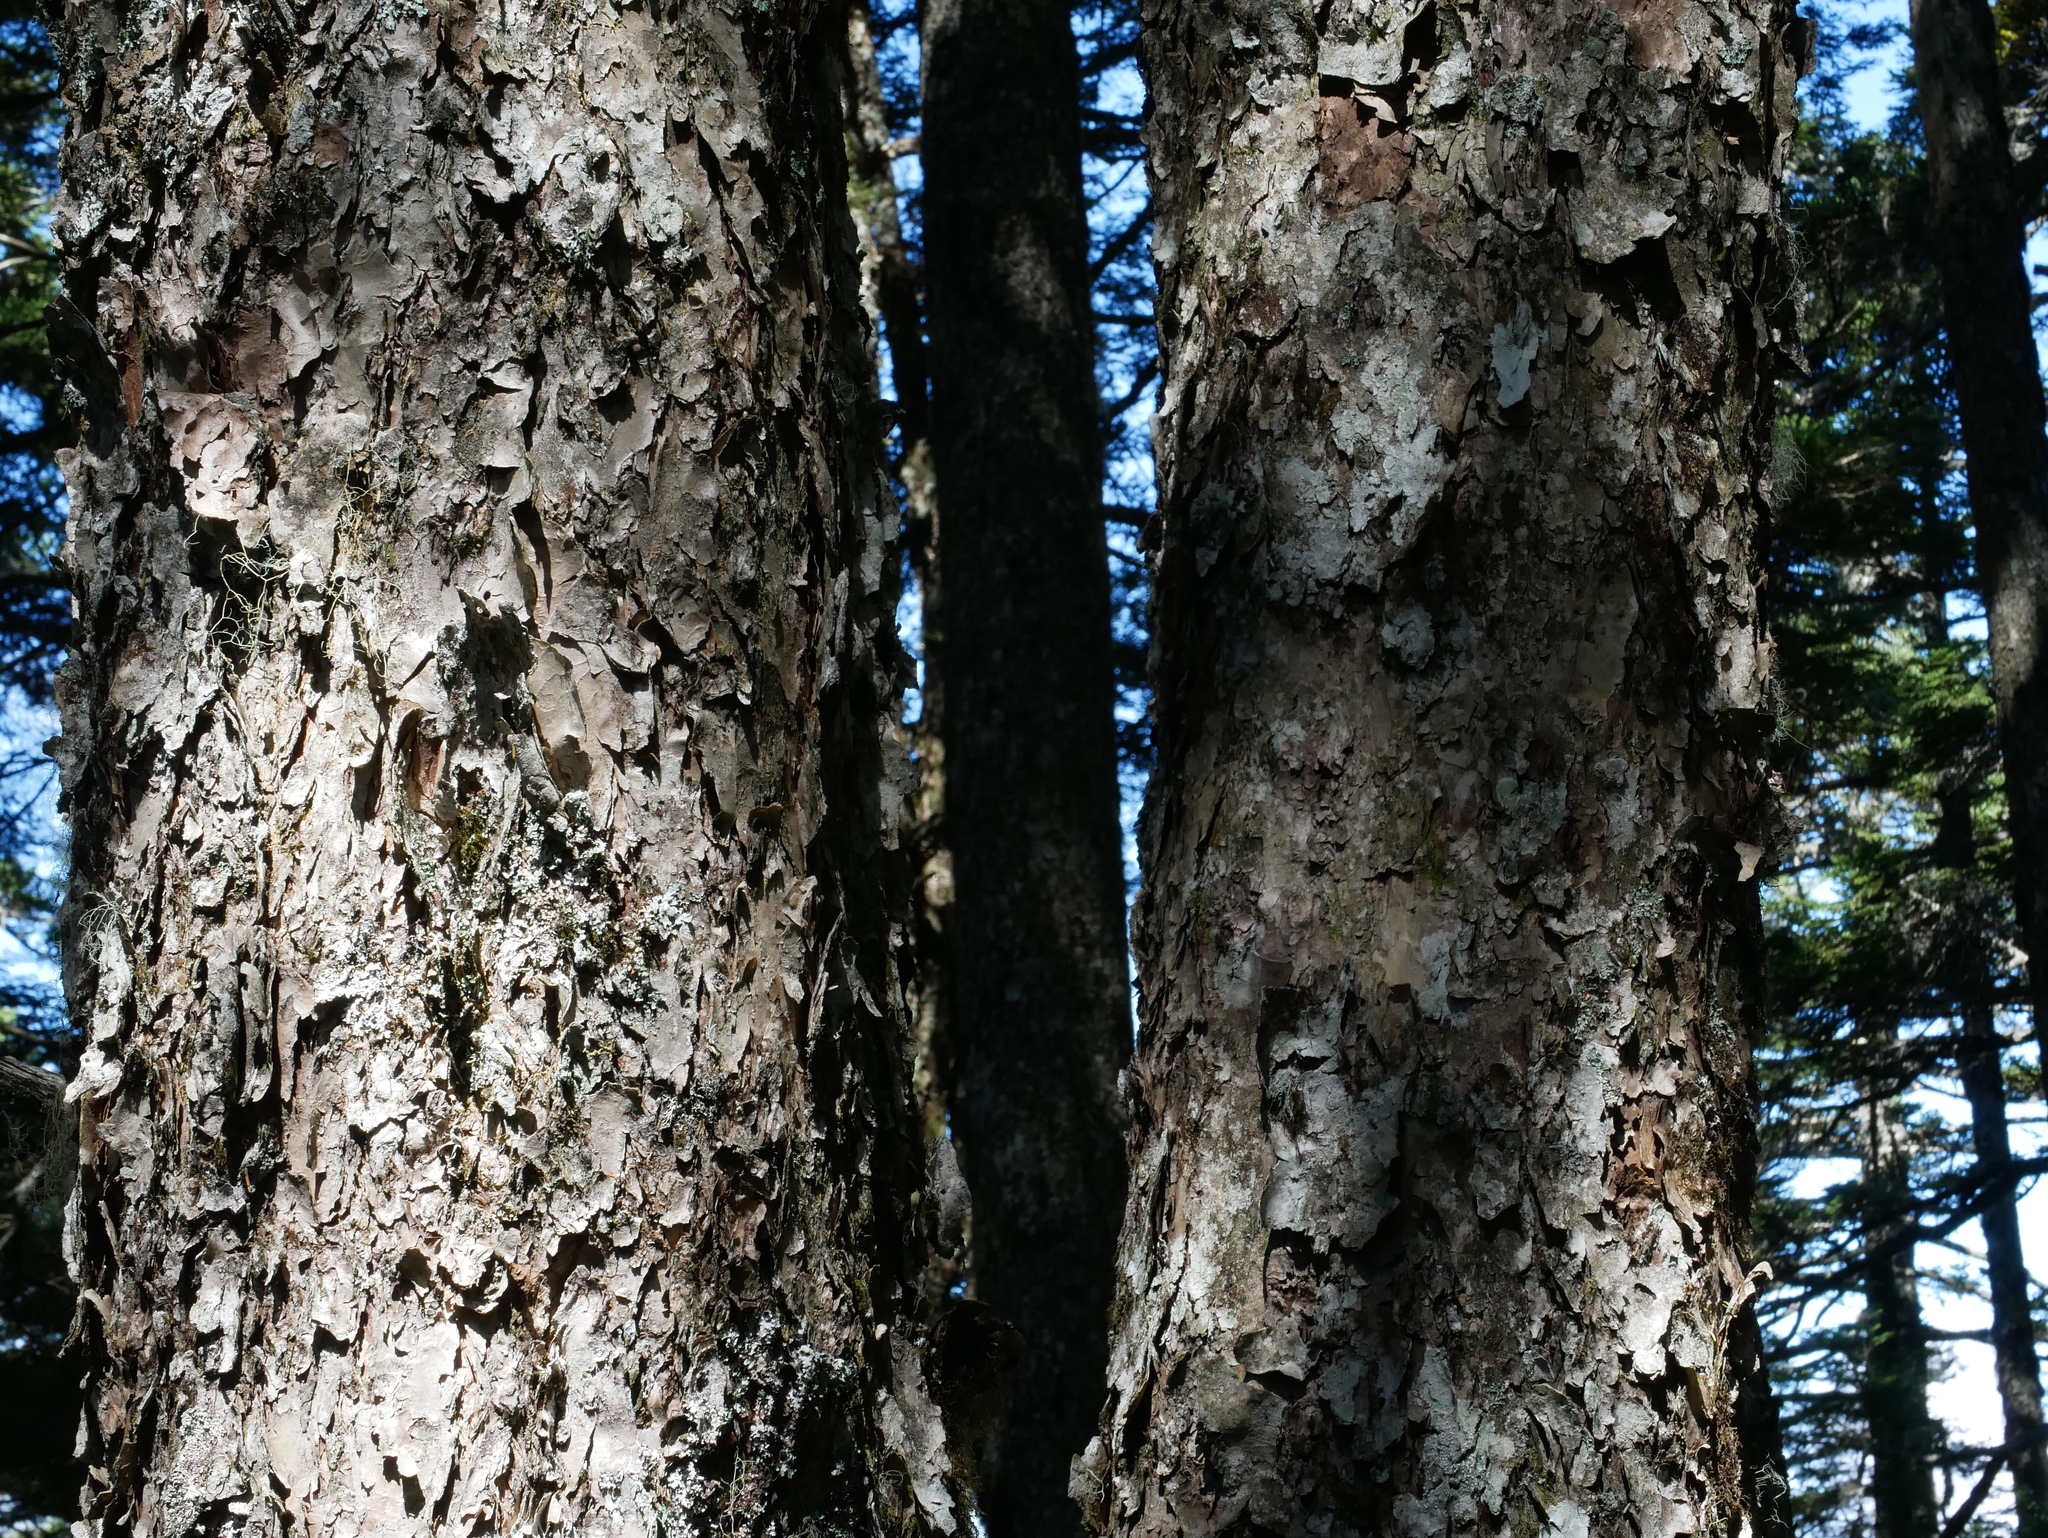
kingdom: Plantae
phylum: Tracheophyta
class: Pinopsida
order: Pinales
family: Pinaceae
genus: Tsuga
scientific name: Tsuga chinensis
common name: Chinese hemlock
